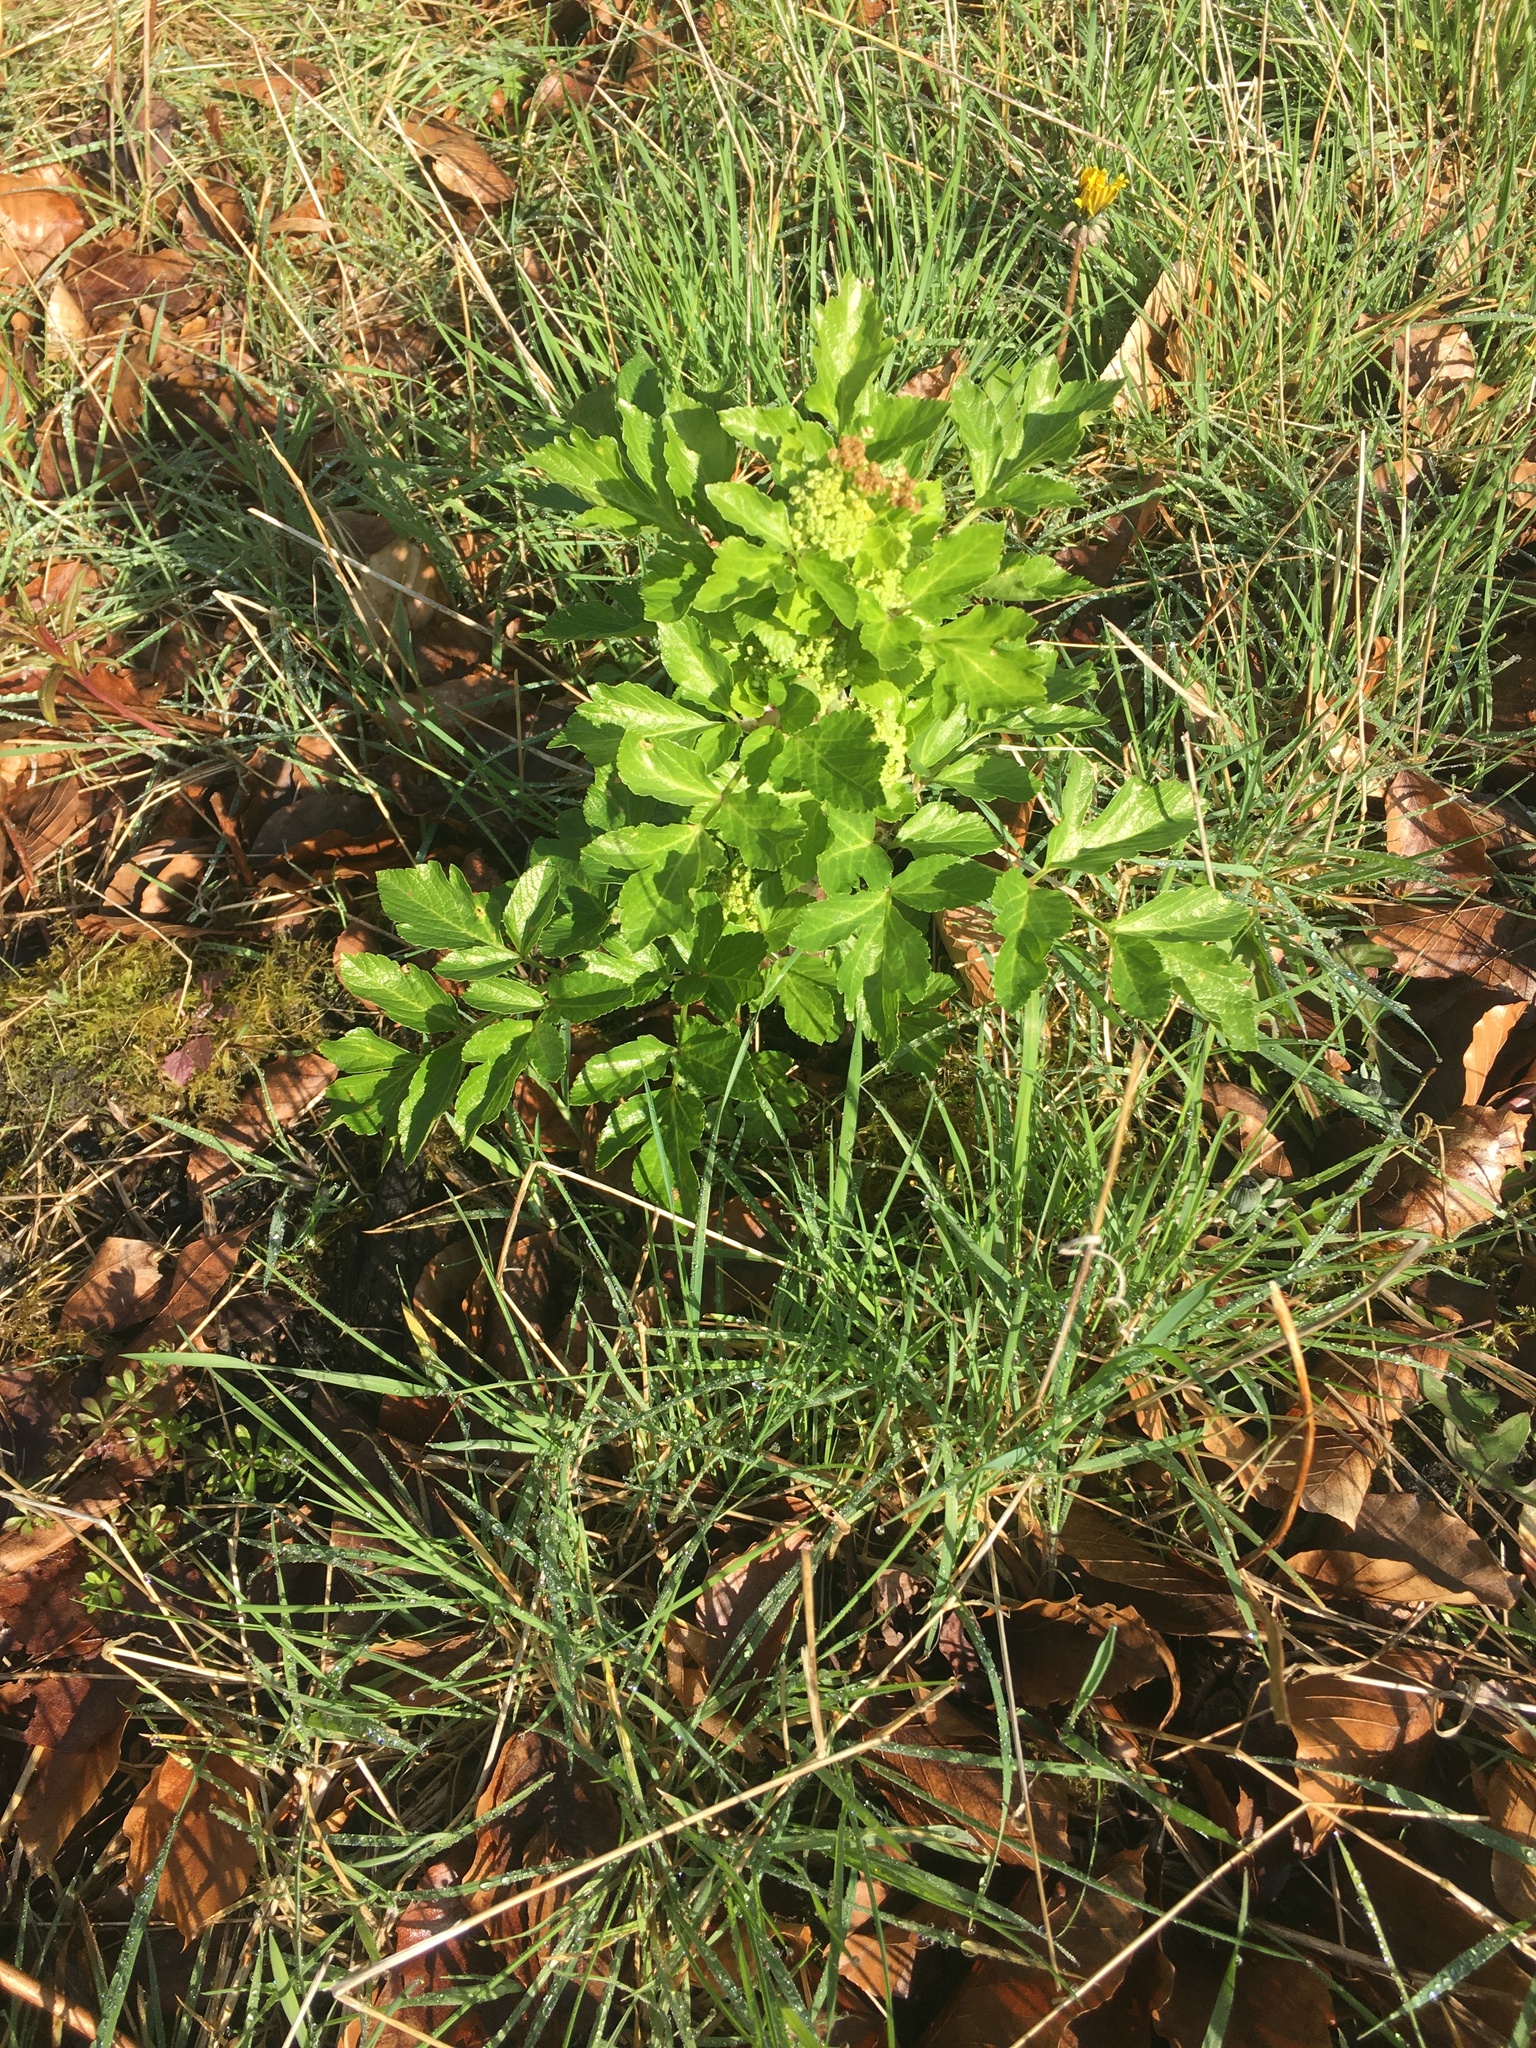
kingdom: Plantae
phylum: Tracheophyta
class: Magnoliopsida
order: Apiales
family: Apiaceae
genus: Smyrnium
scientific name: Smyrnium olusatrum
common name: Alexanders
